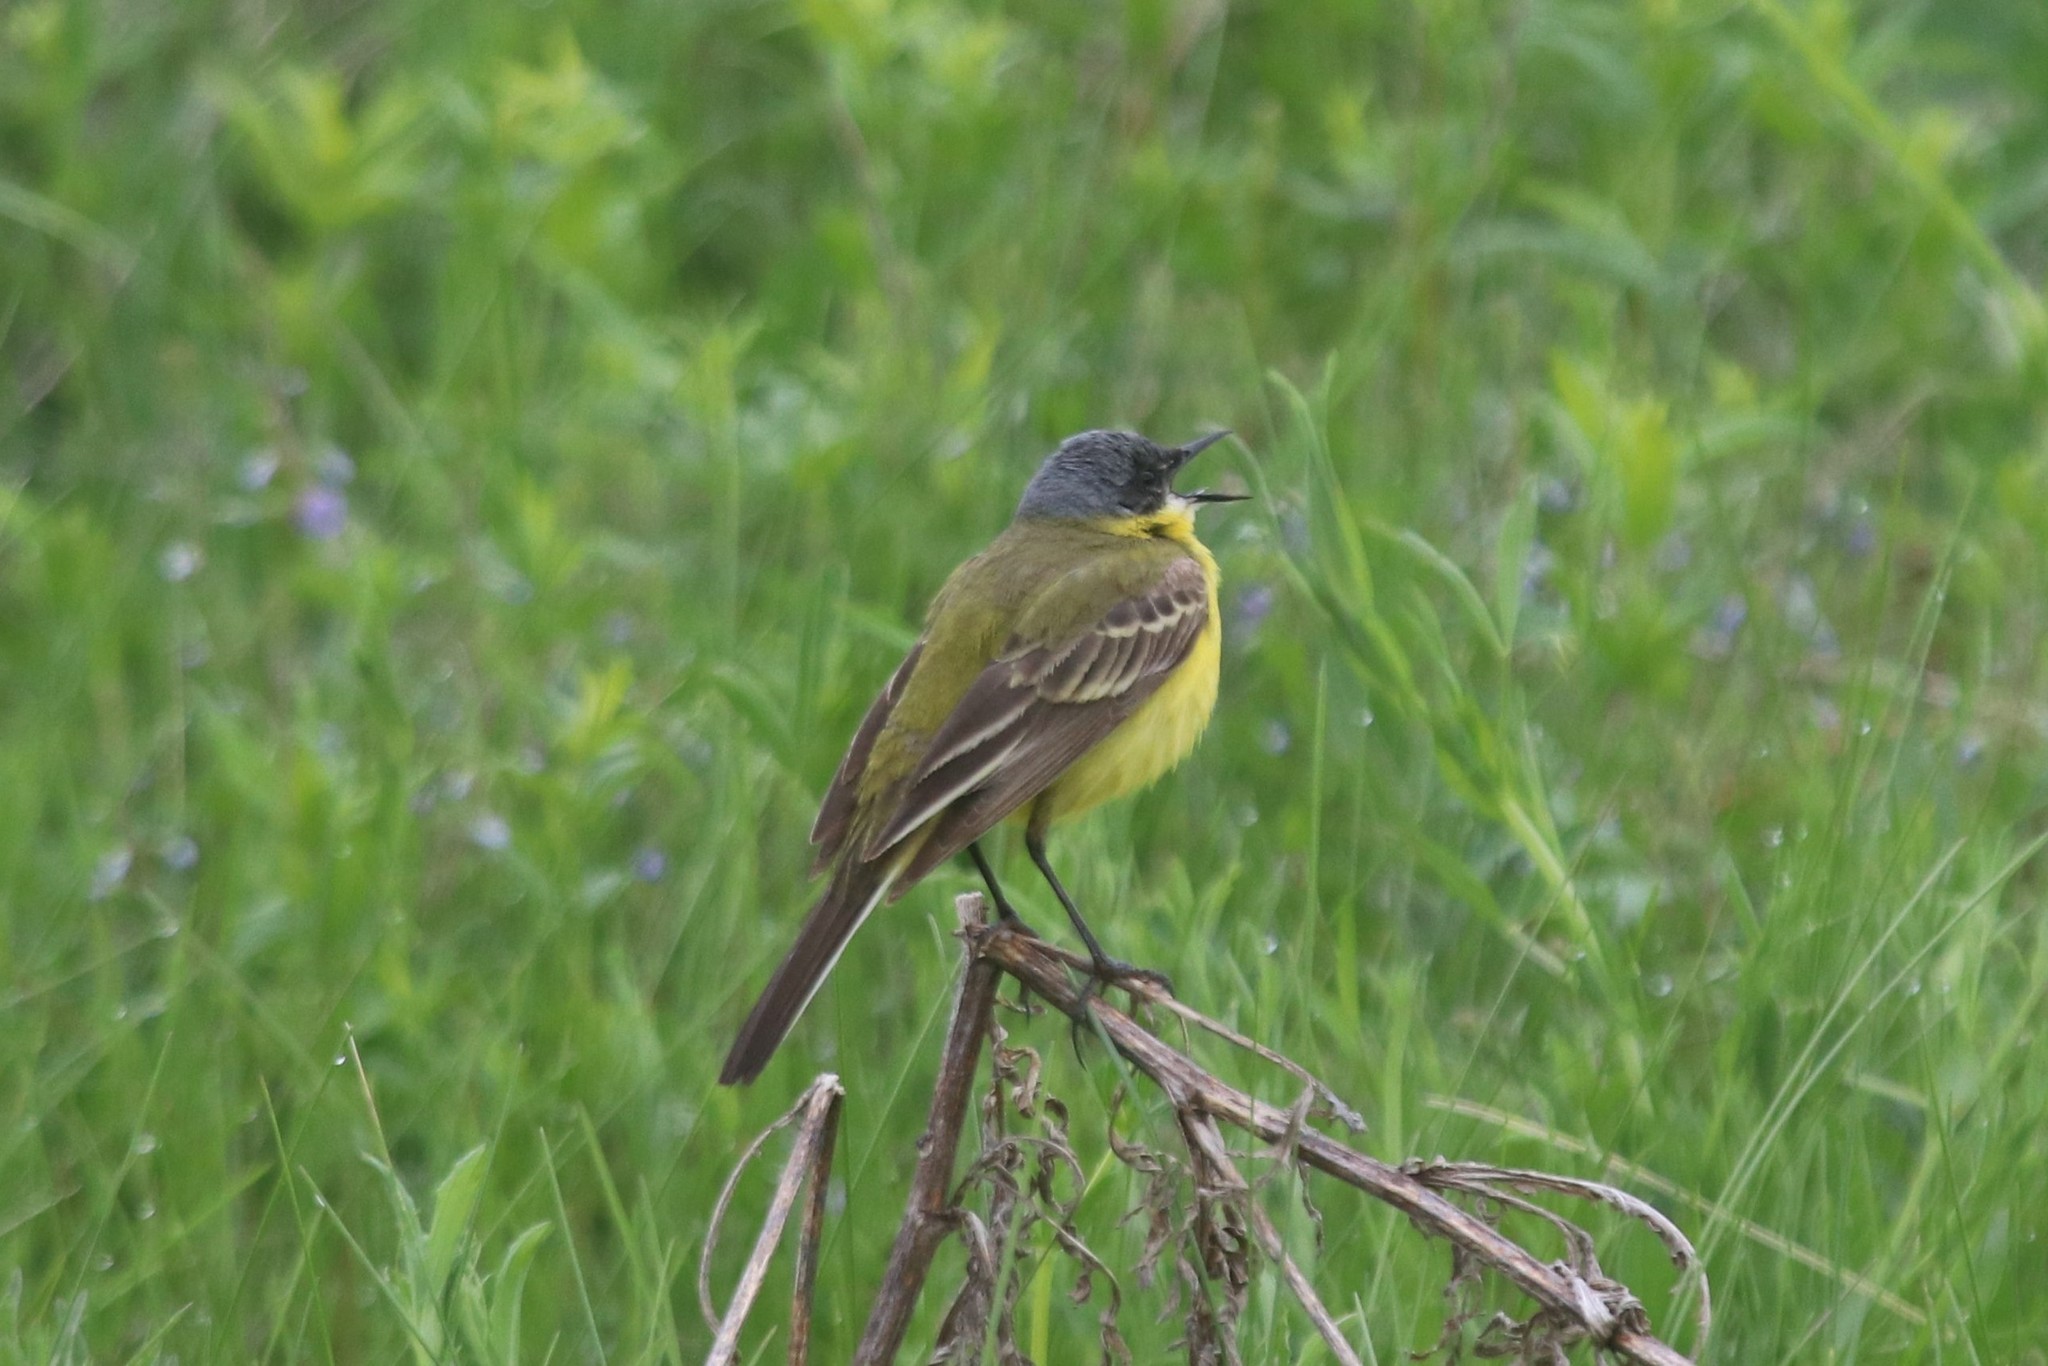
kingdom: Animalia
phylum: Chordata
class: Aves
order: Passeriformes
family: Motacillidae
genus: Motacilla
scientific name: Motacilla flava
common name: Western yellow wagtail
